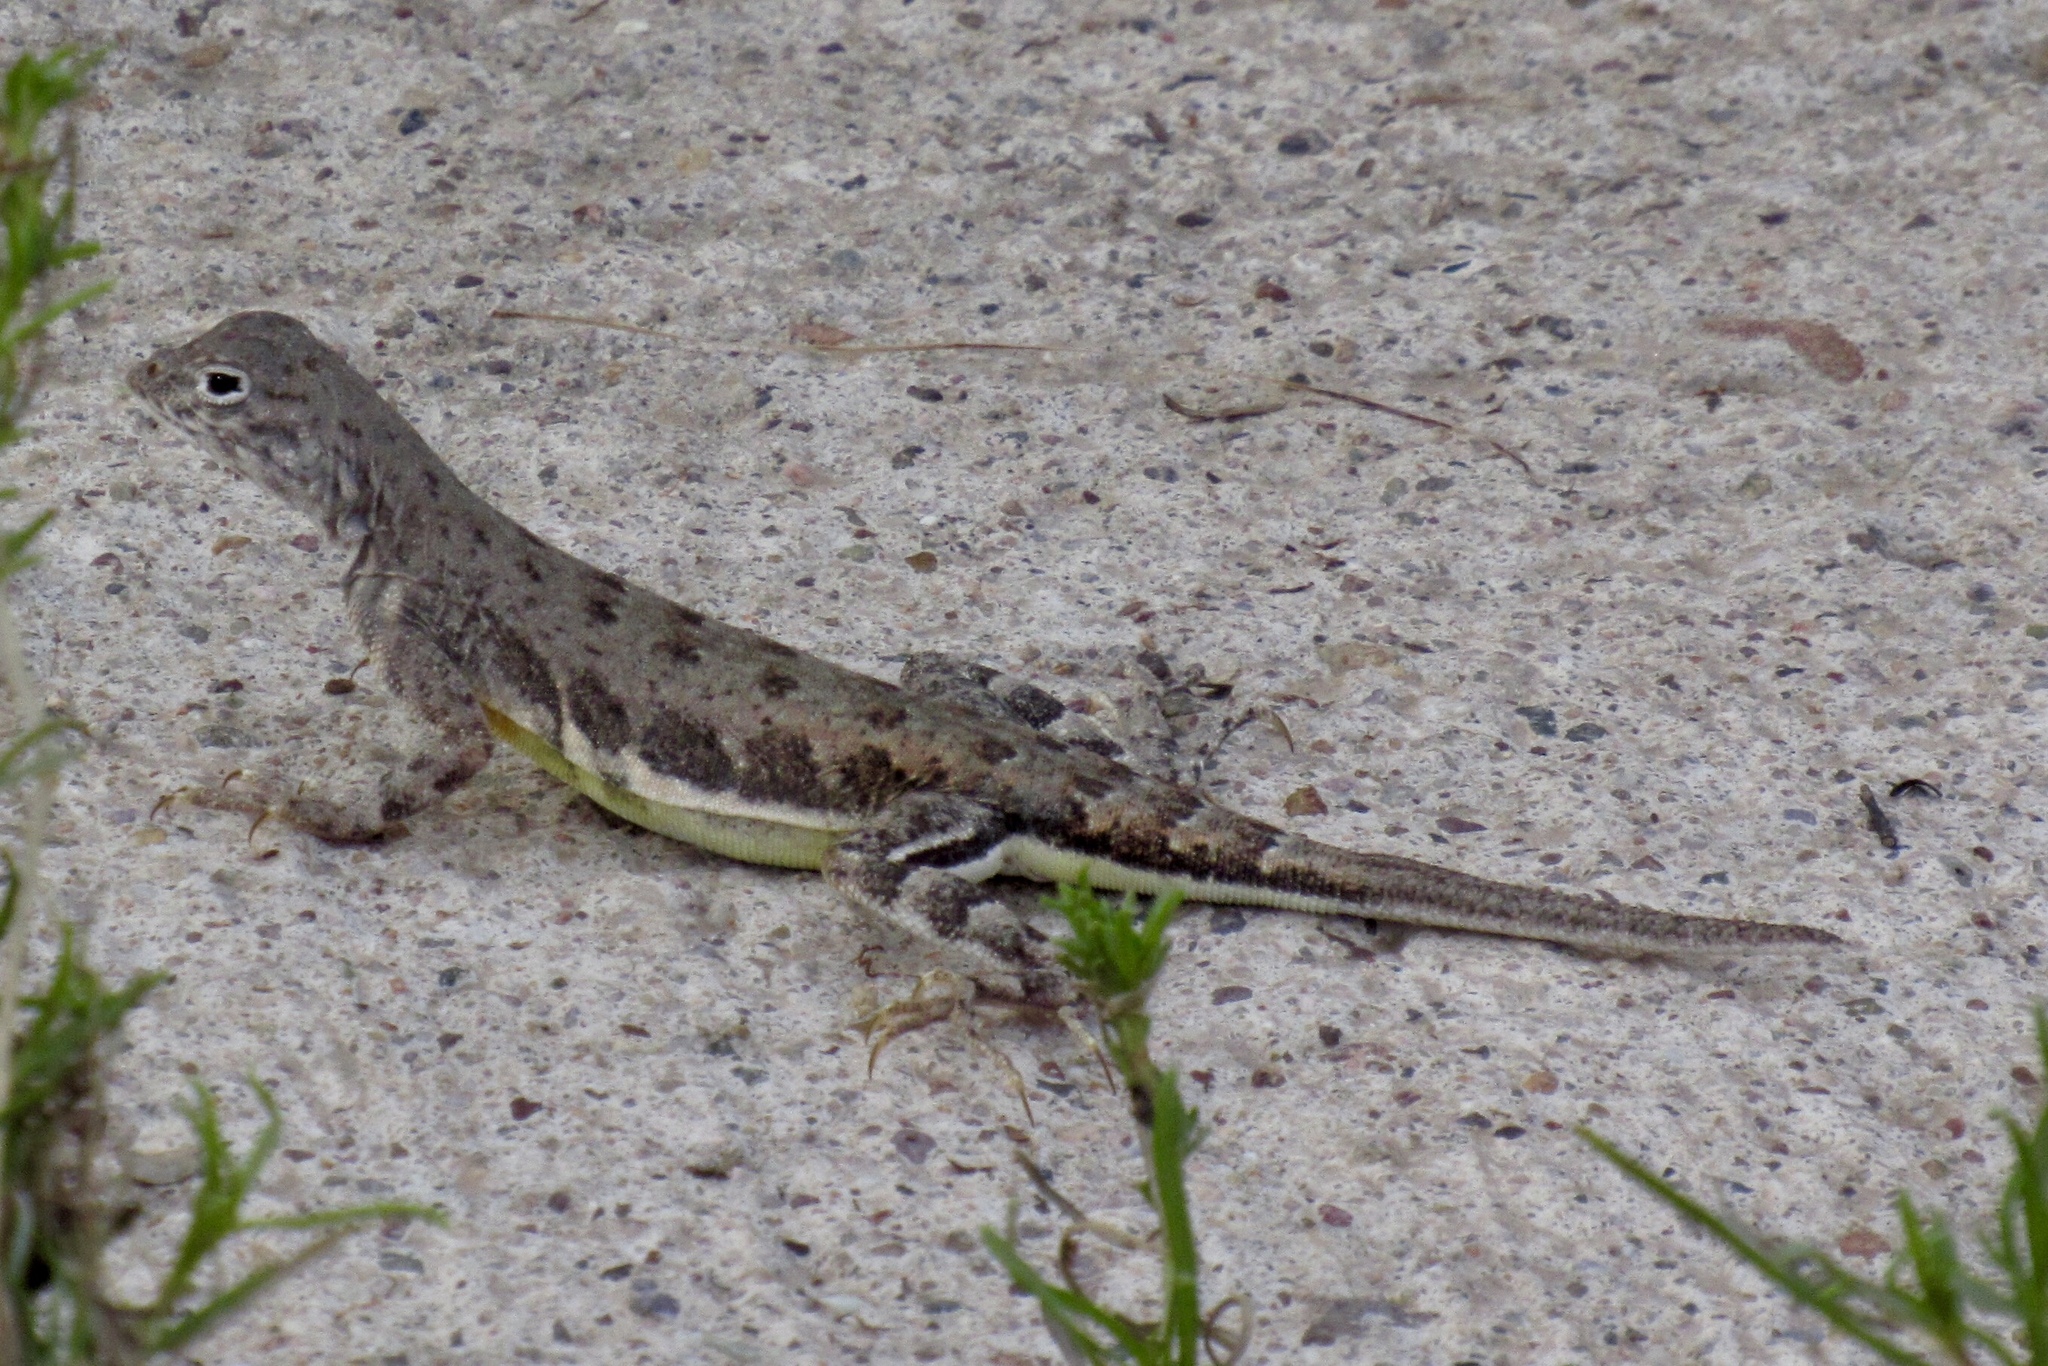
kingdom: Animalia
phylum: Chordata
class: Squamata
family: Phrynosomatidae
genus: Callisaurus
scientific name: Callisaurus draconoides
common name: Zebra-tailed lizard
